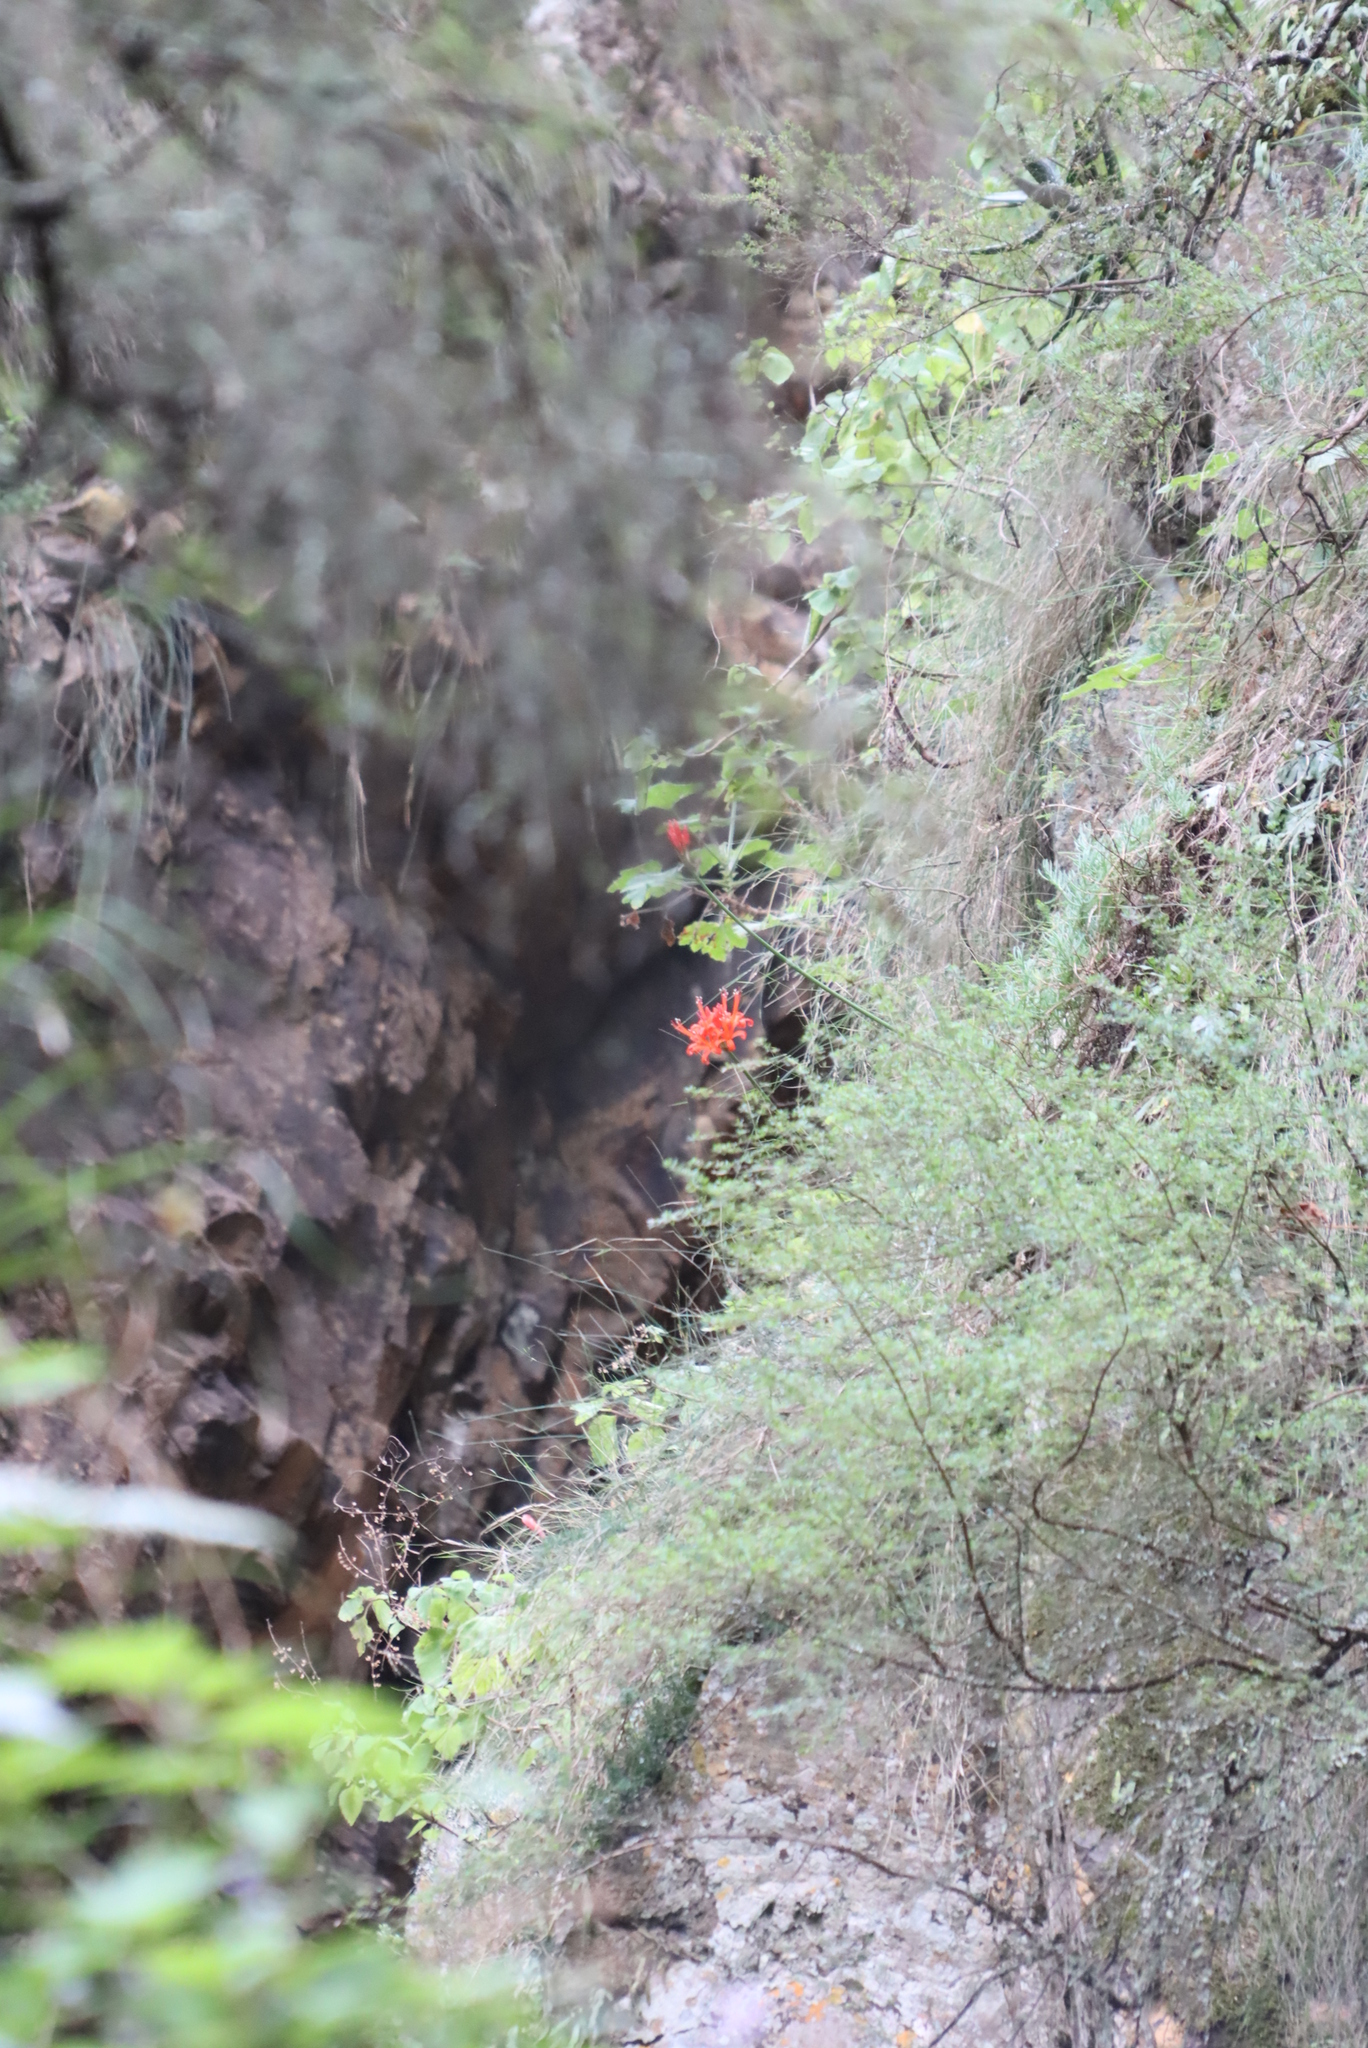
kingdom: Plantae
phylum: Tracheophyta
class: Liliopsida
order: Asparagales
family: Amaryllidaceae
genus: Nerine
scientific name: Nerine sarniensis
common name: Guernsey-lily
